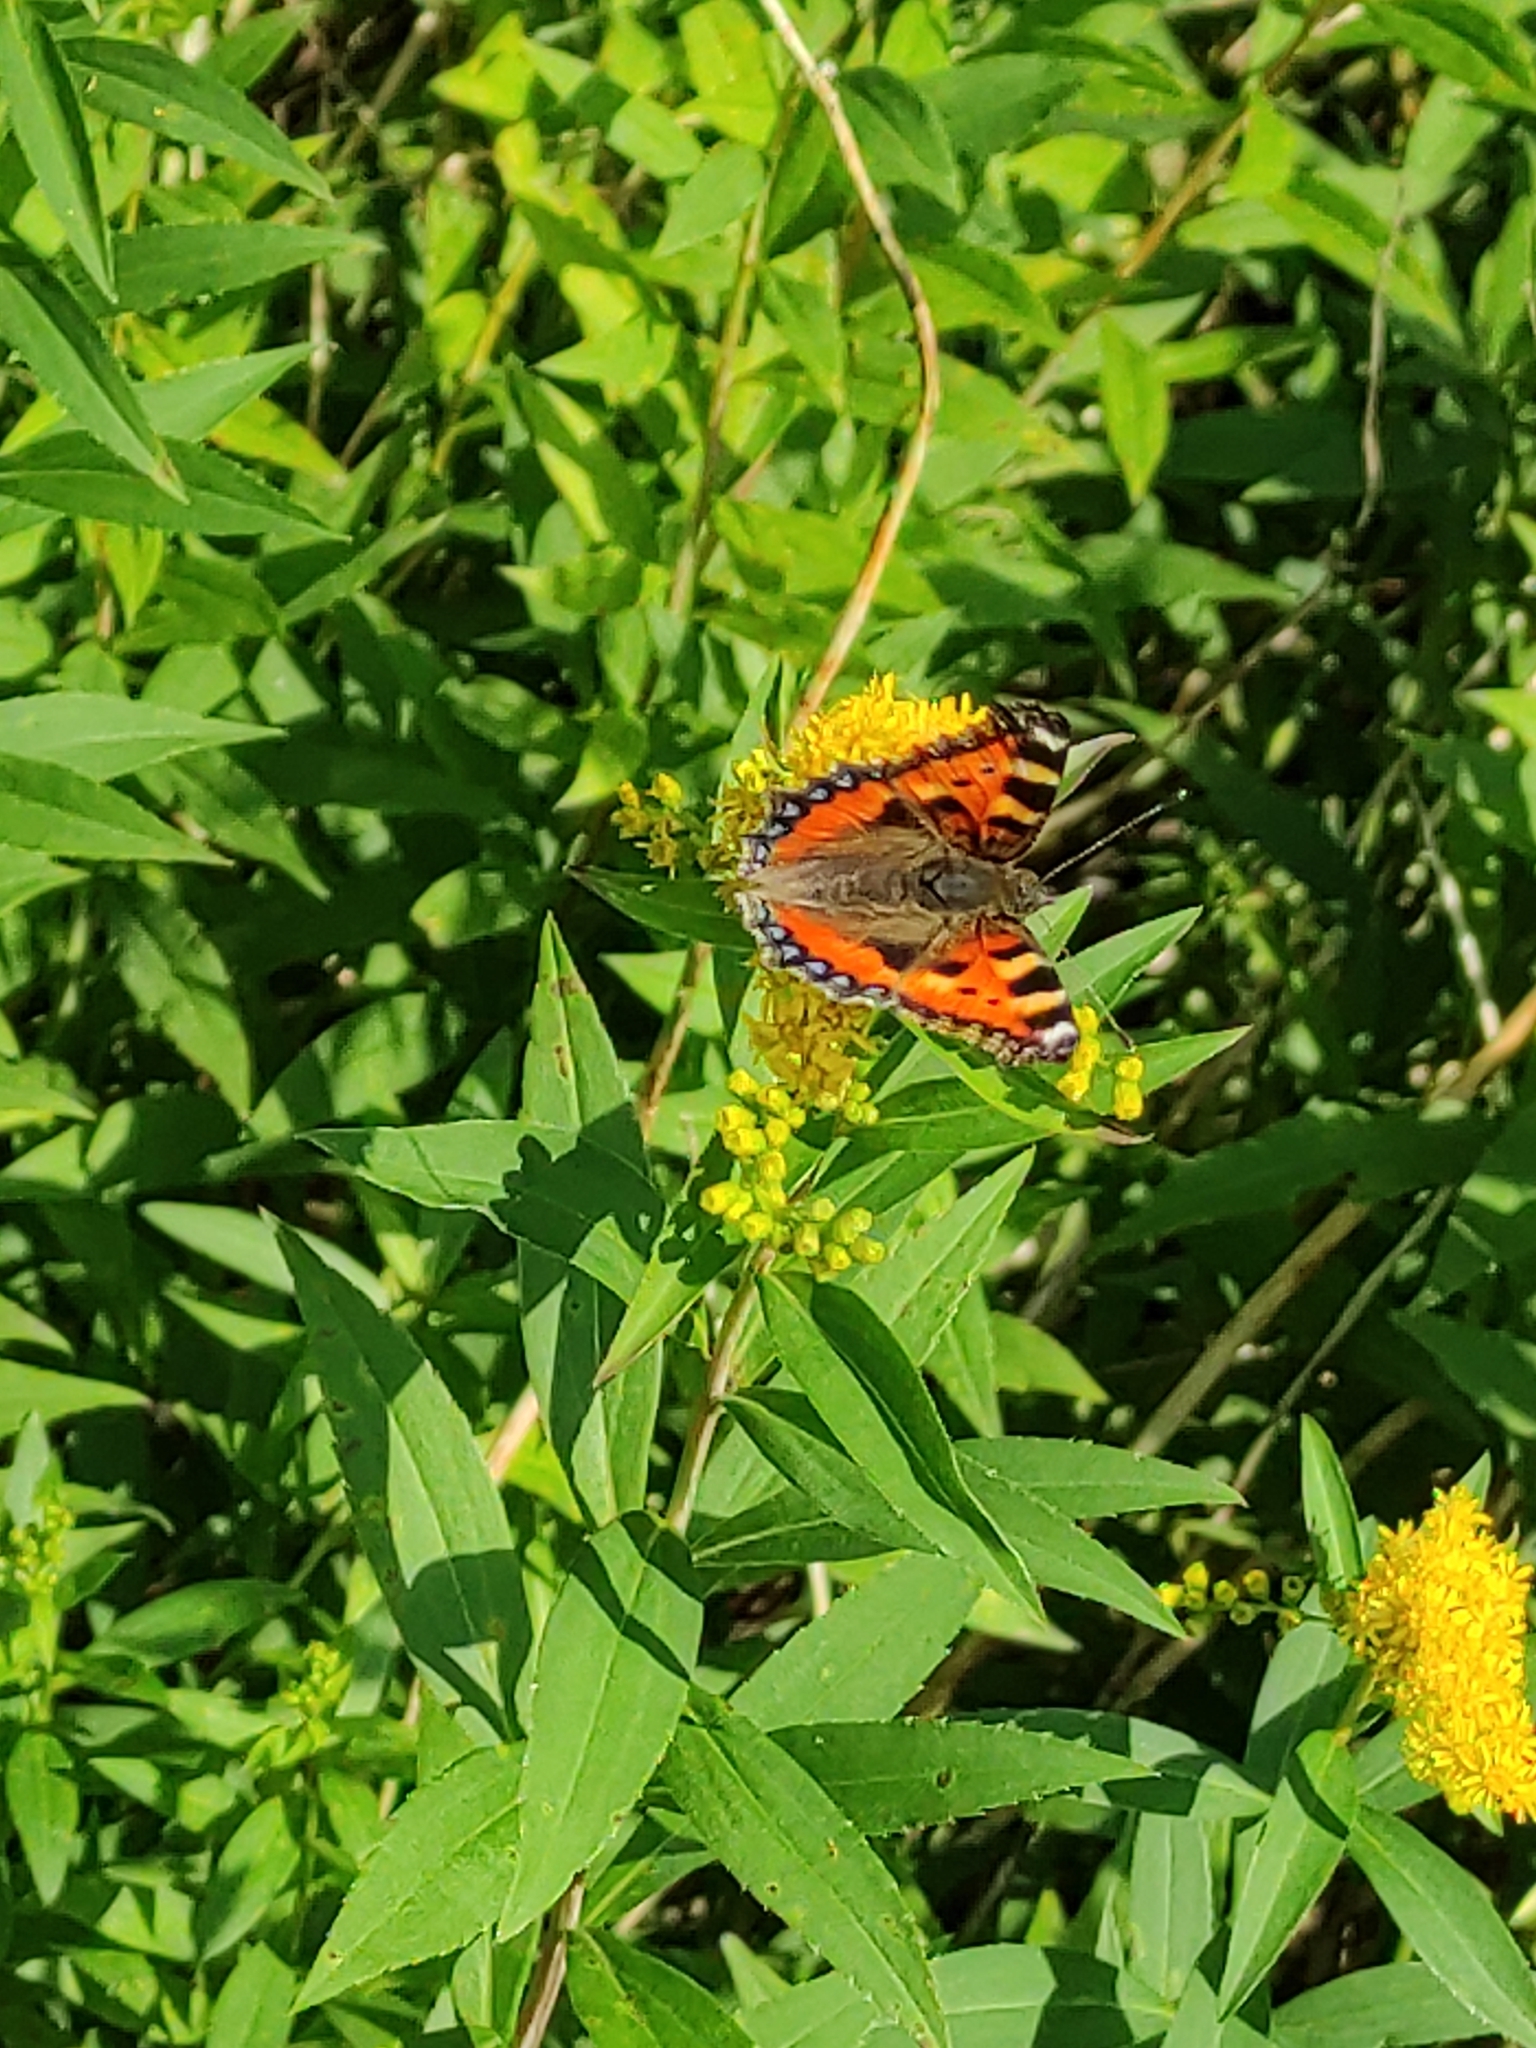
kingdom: Animalia
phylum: Arthropoda
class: Insecta
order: Lepidoptera
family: Nymphalidae
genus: Aglais
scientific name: Aglais urticae
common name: Small tortoiseshell
